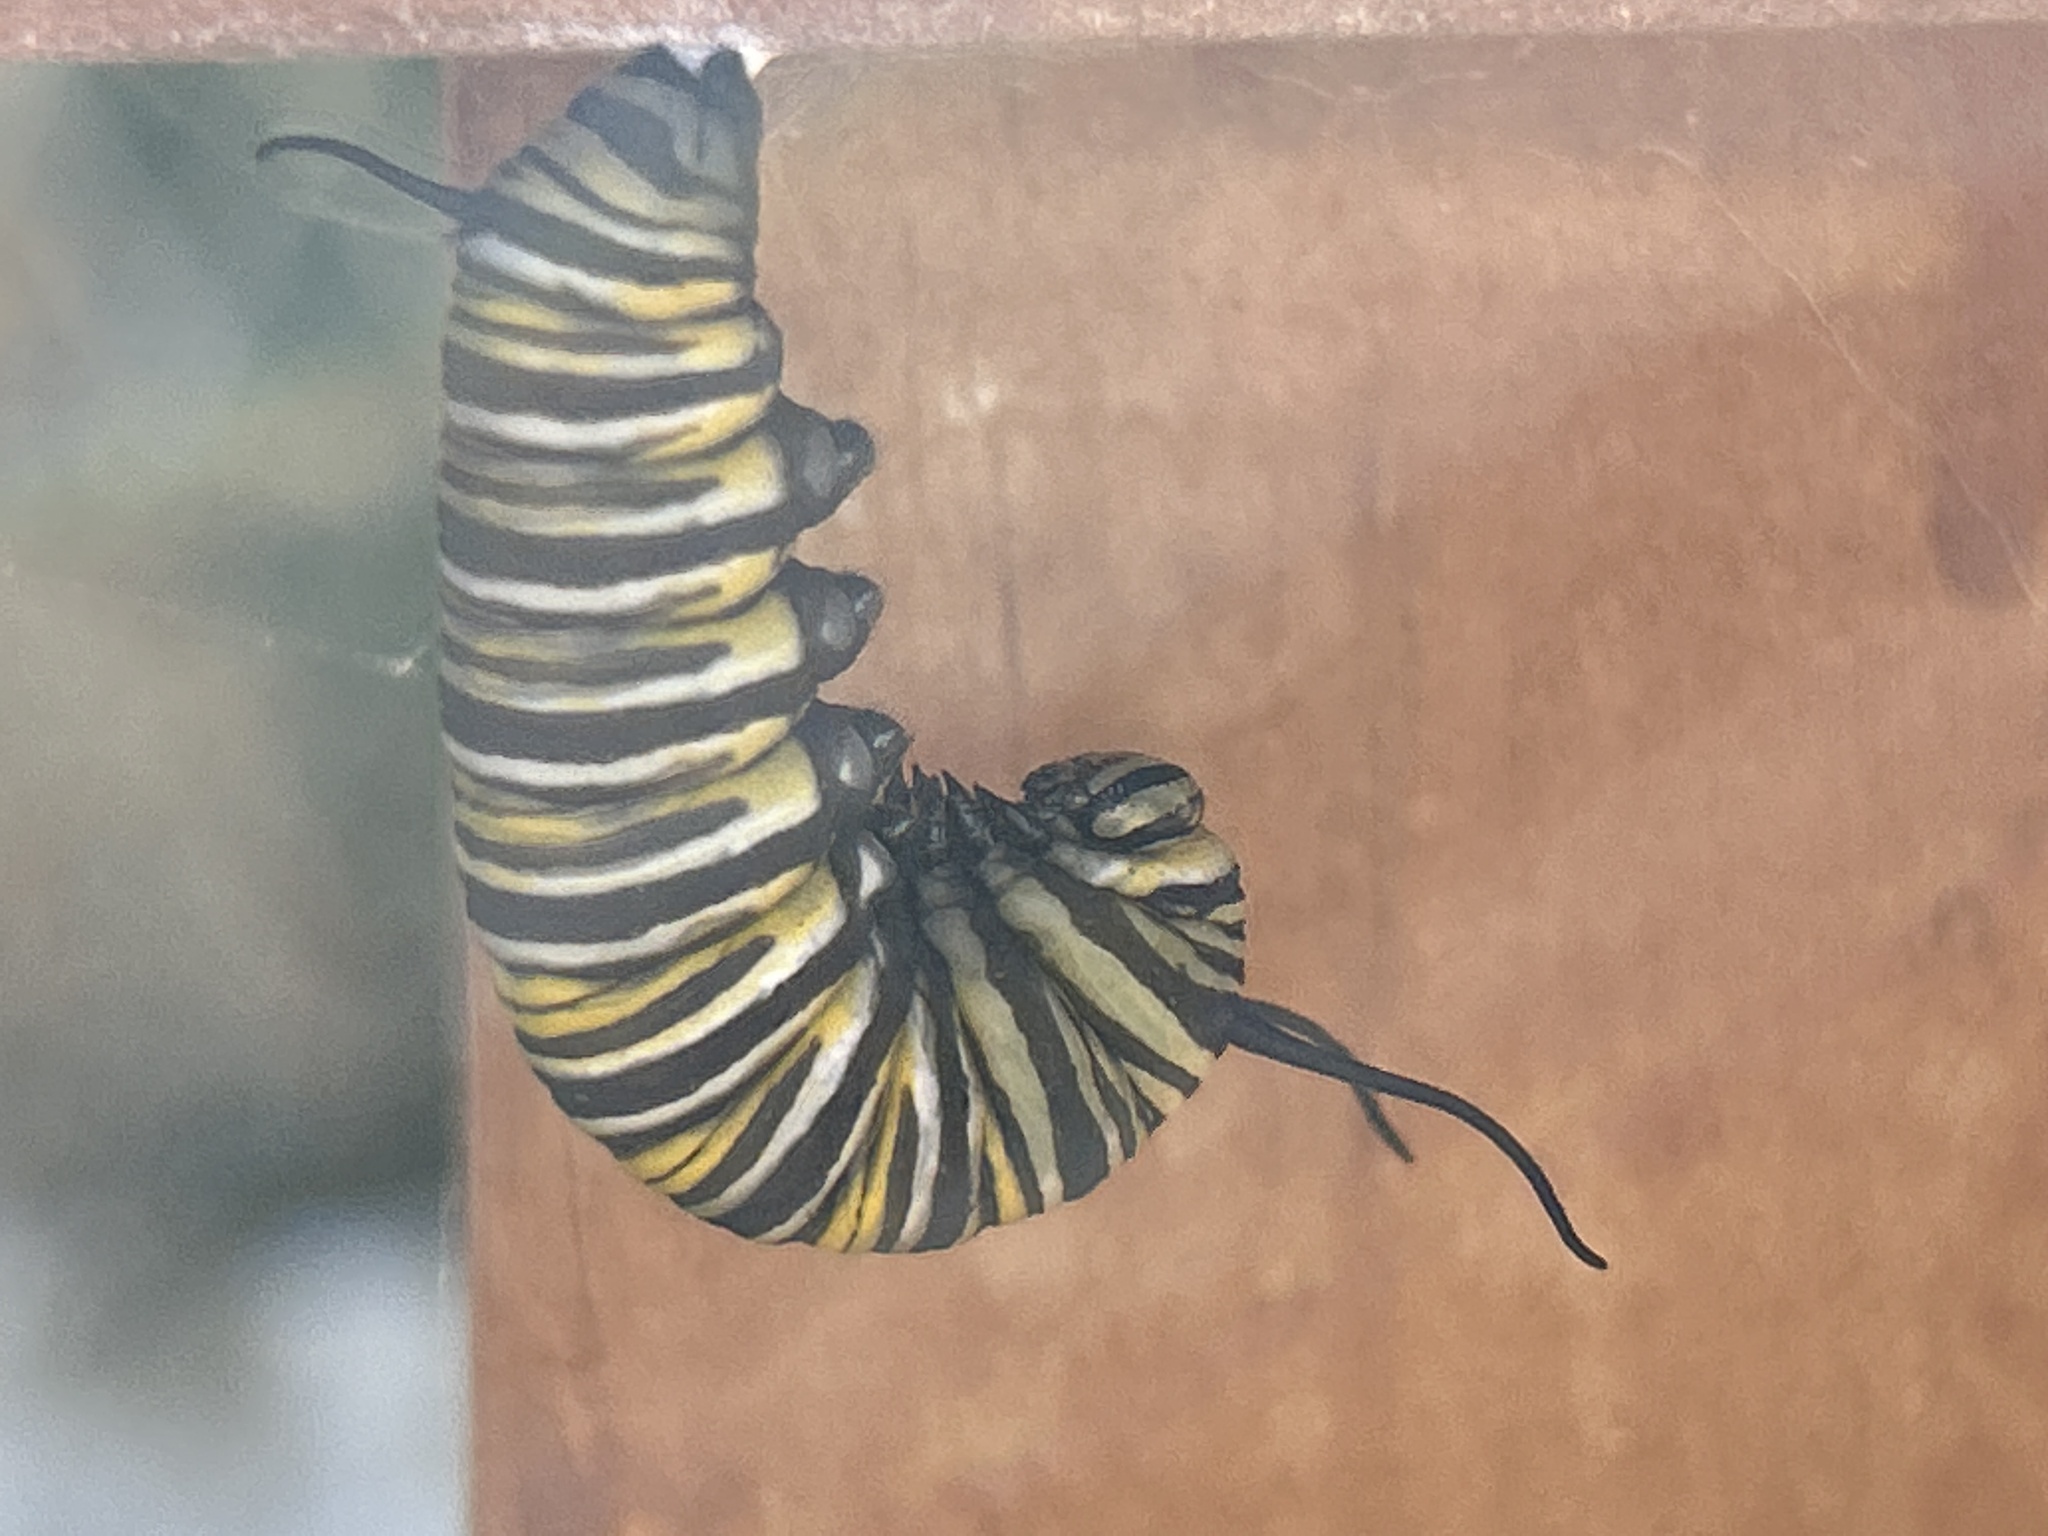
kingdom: Animalia
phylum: Arthropoda
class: Insecta
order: Lepidoptera
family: Nymphalidae
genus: Danaus
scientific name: Danaus plexippus
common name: Monarch
